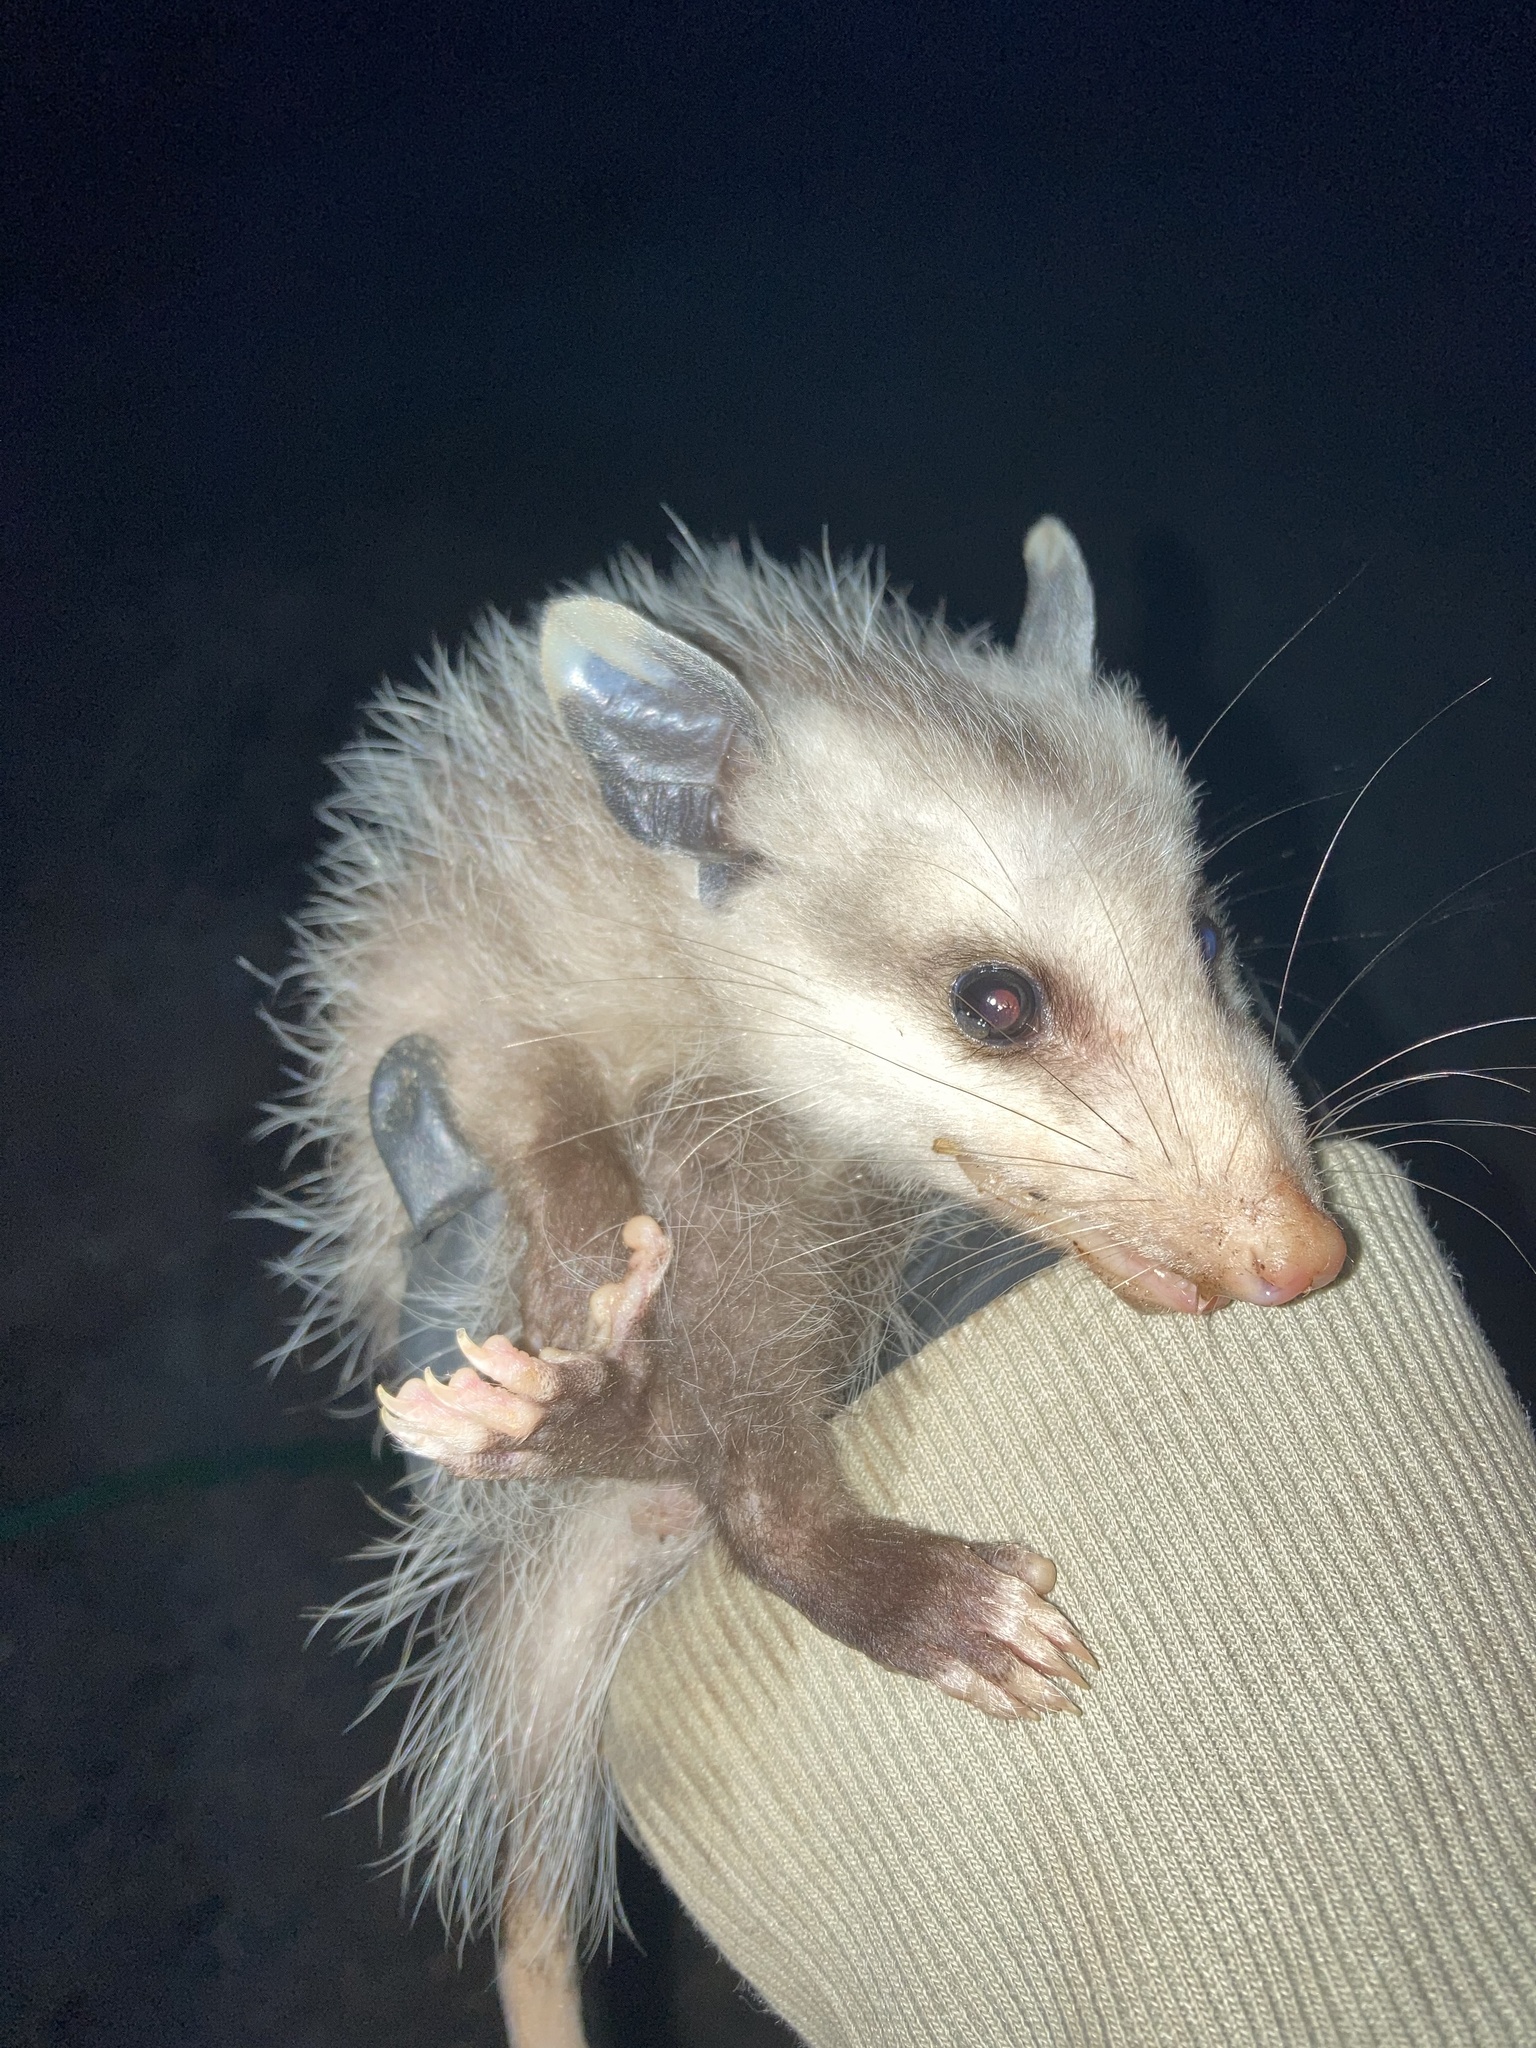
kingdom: Animalia
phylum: Chordata
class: Mammalia
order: Didelphimorphia
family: Didelphidae
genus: Didelphis
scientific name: Didelphis virginiana
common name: Virginia opossum
